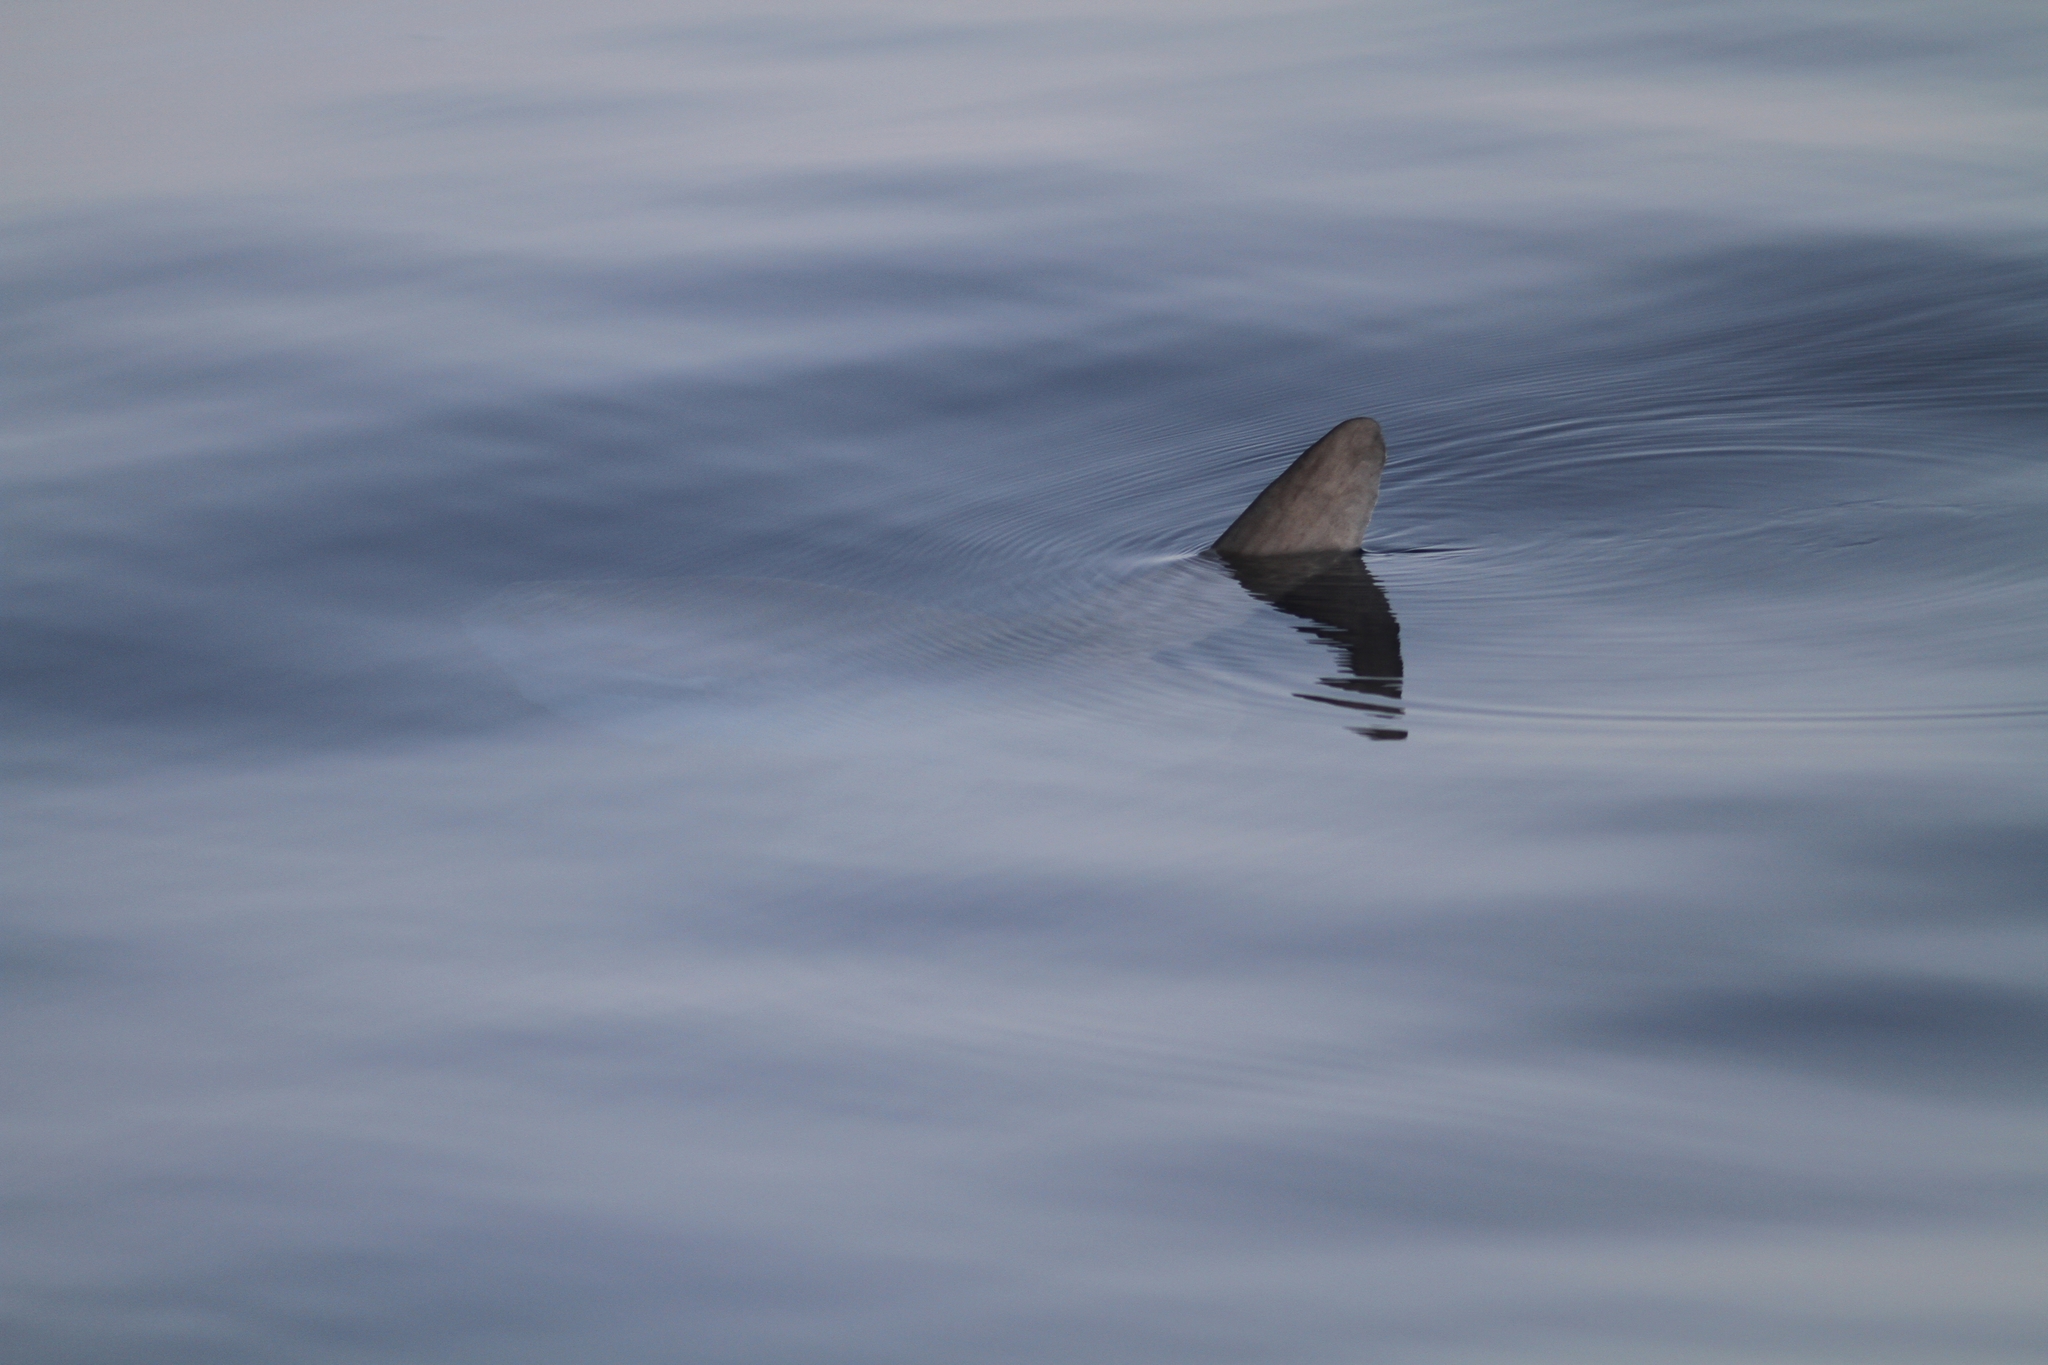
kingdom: Animalia
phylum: Chordata
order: Tetraodontiformes
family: Molidae
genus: Mola
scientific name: Mola mola
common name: Ocean sunfish
